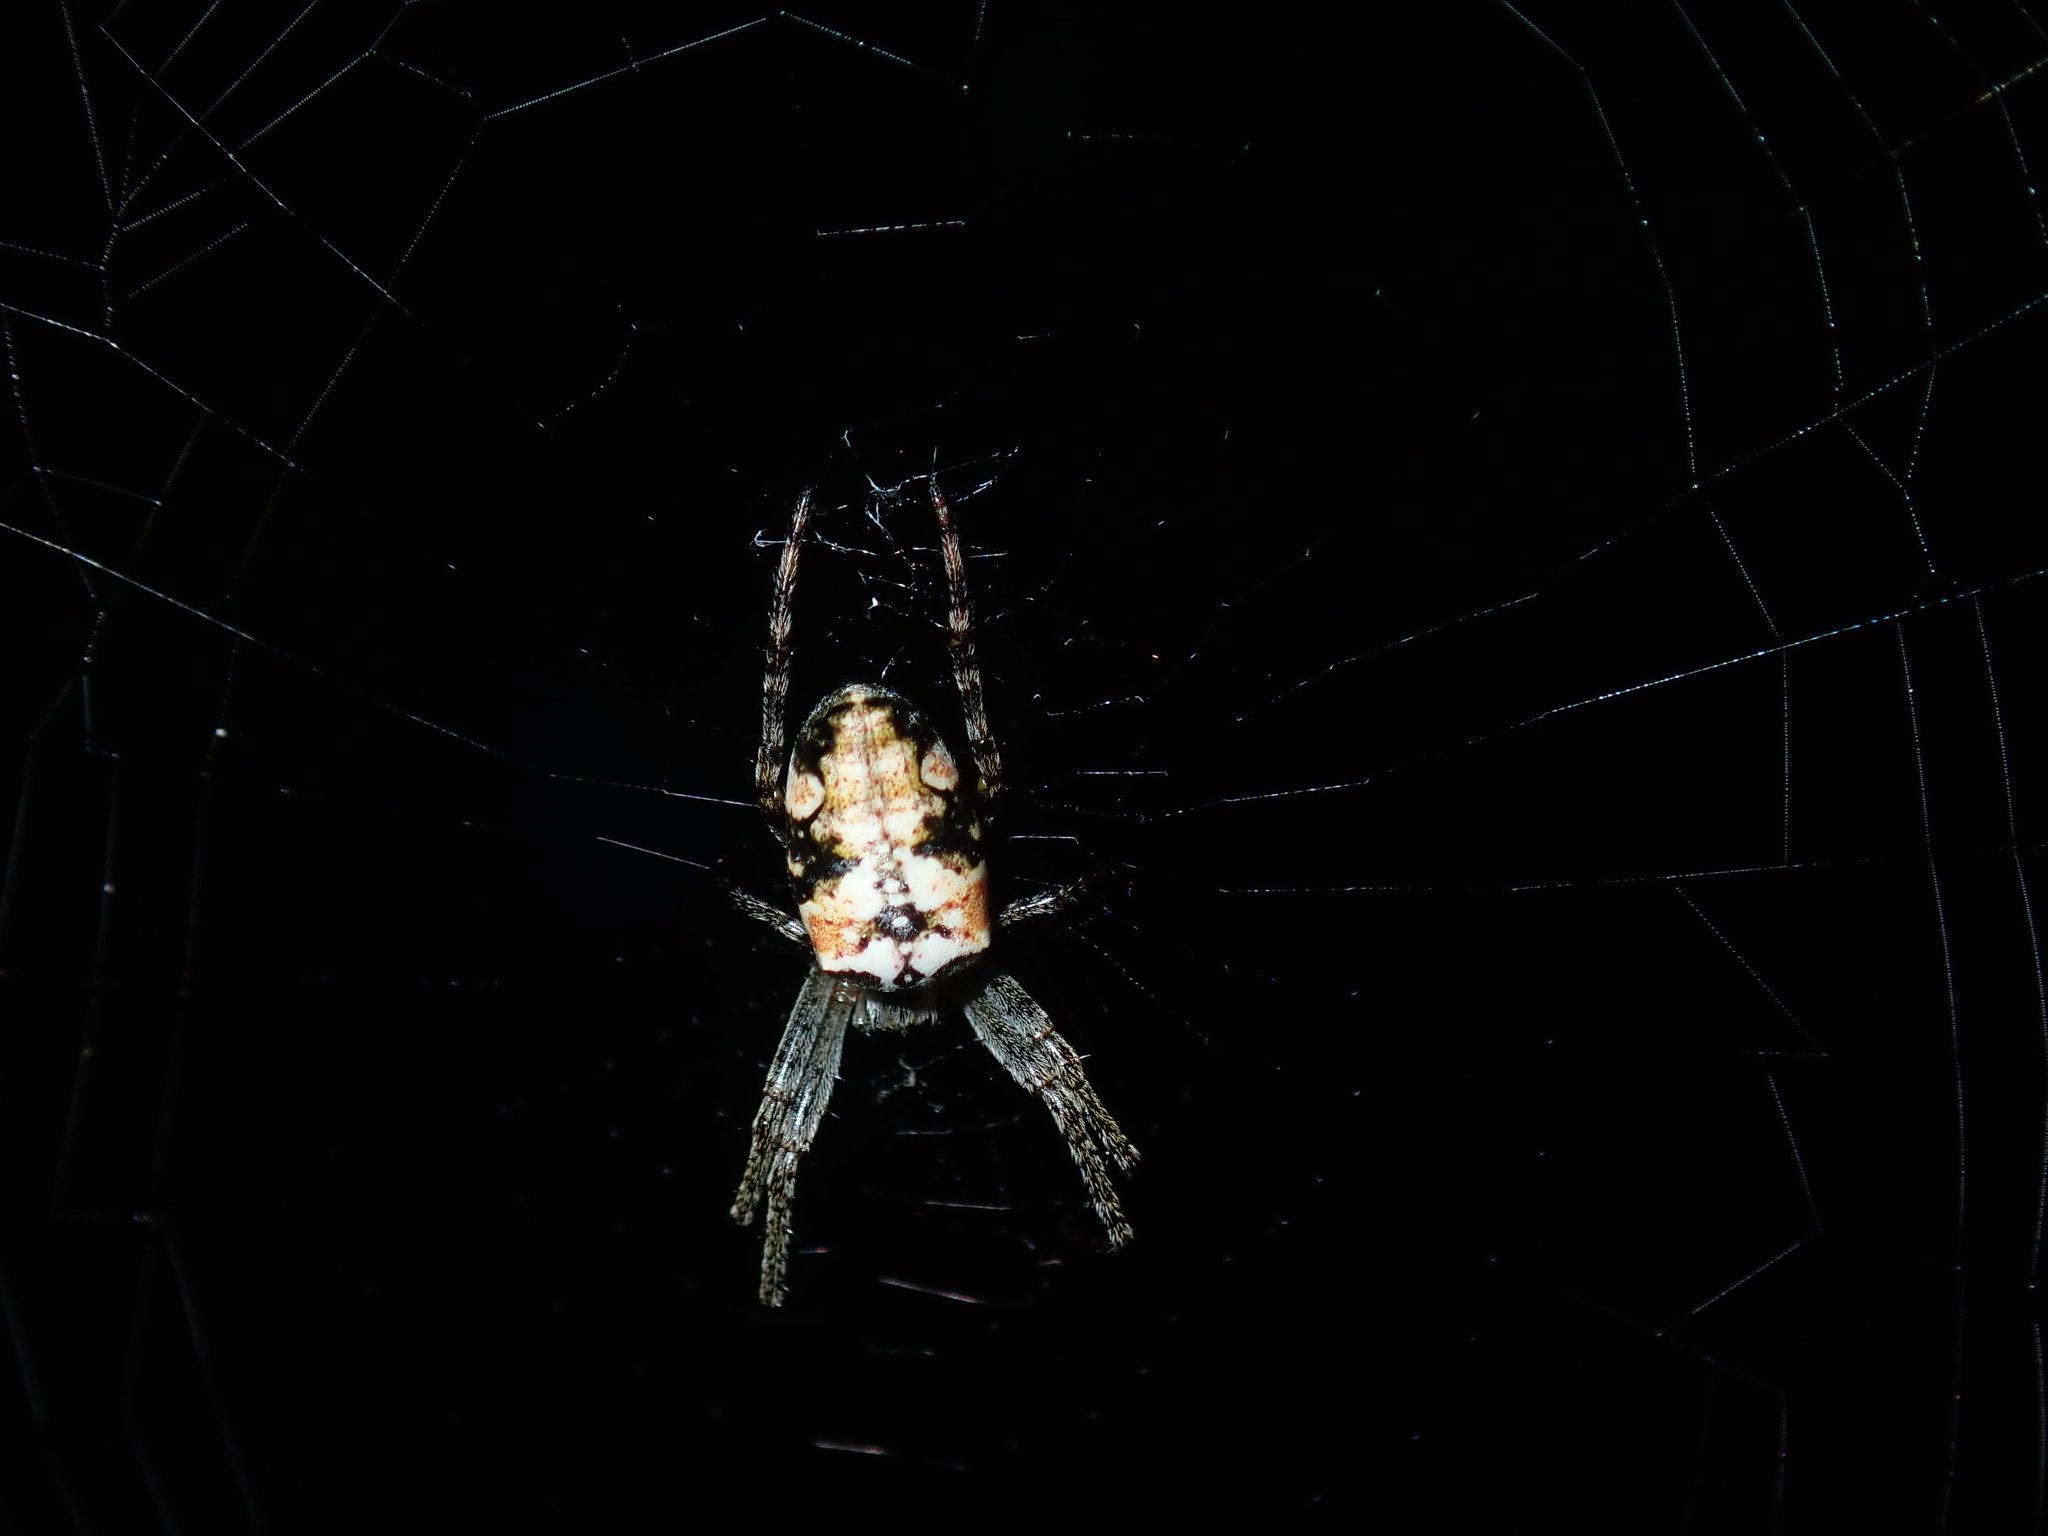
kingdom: Animalia
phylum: Arthropoda
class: Arachnida
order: Araneae
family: Araneidae
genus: Plebs
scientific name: Plebs eburnus
